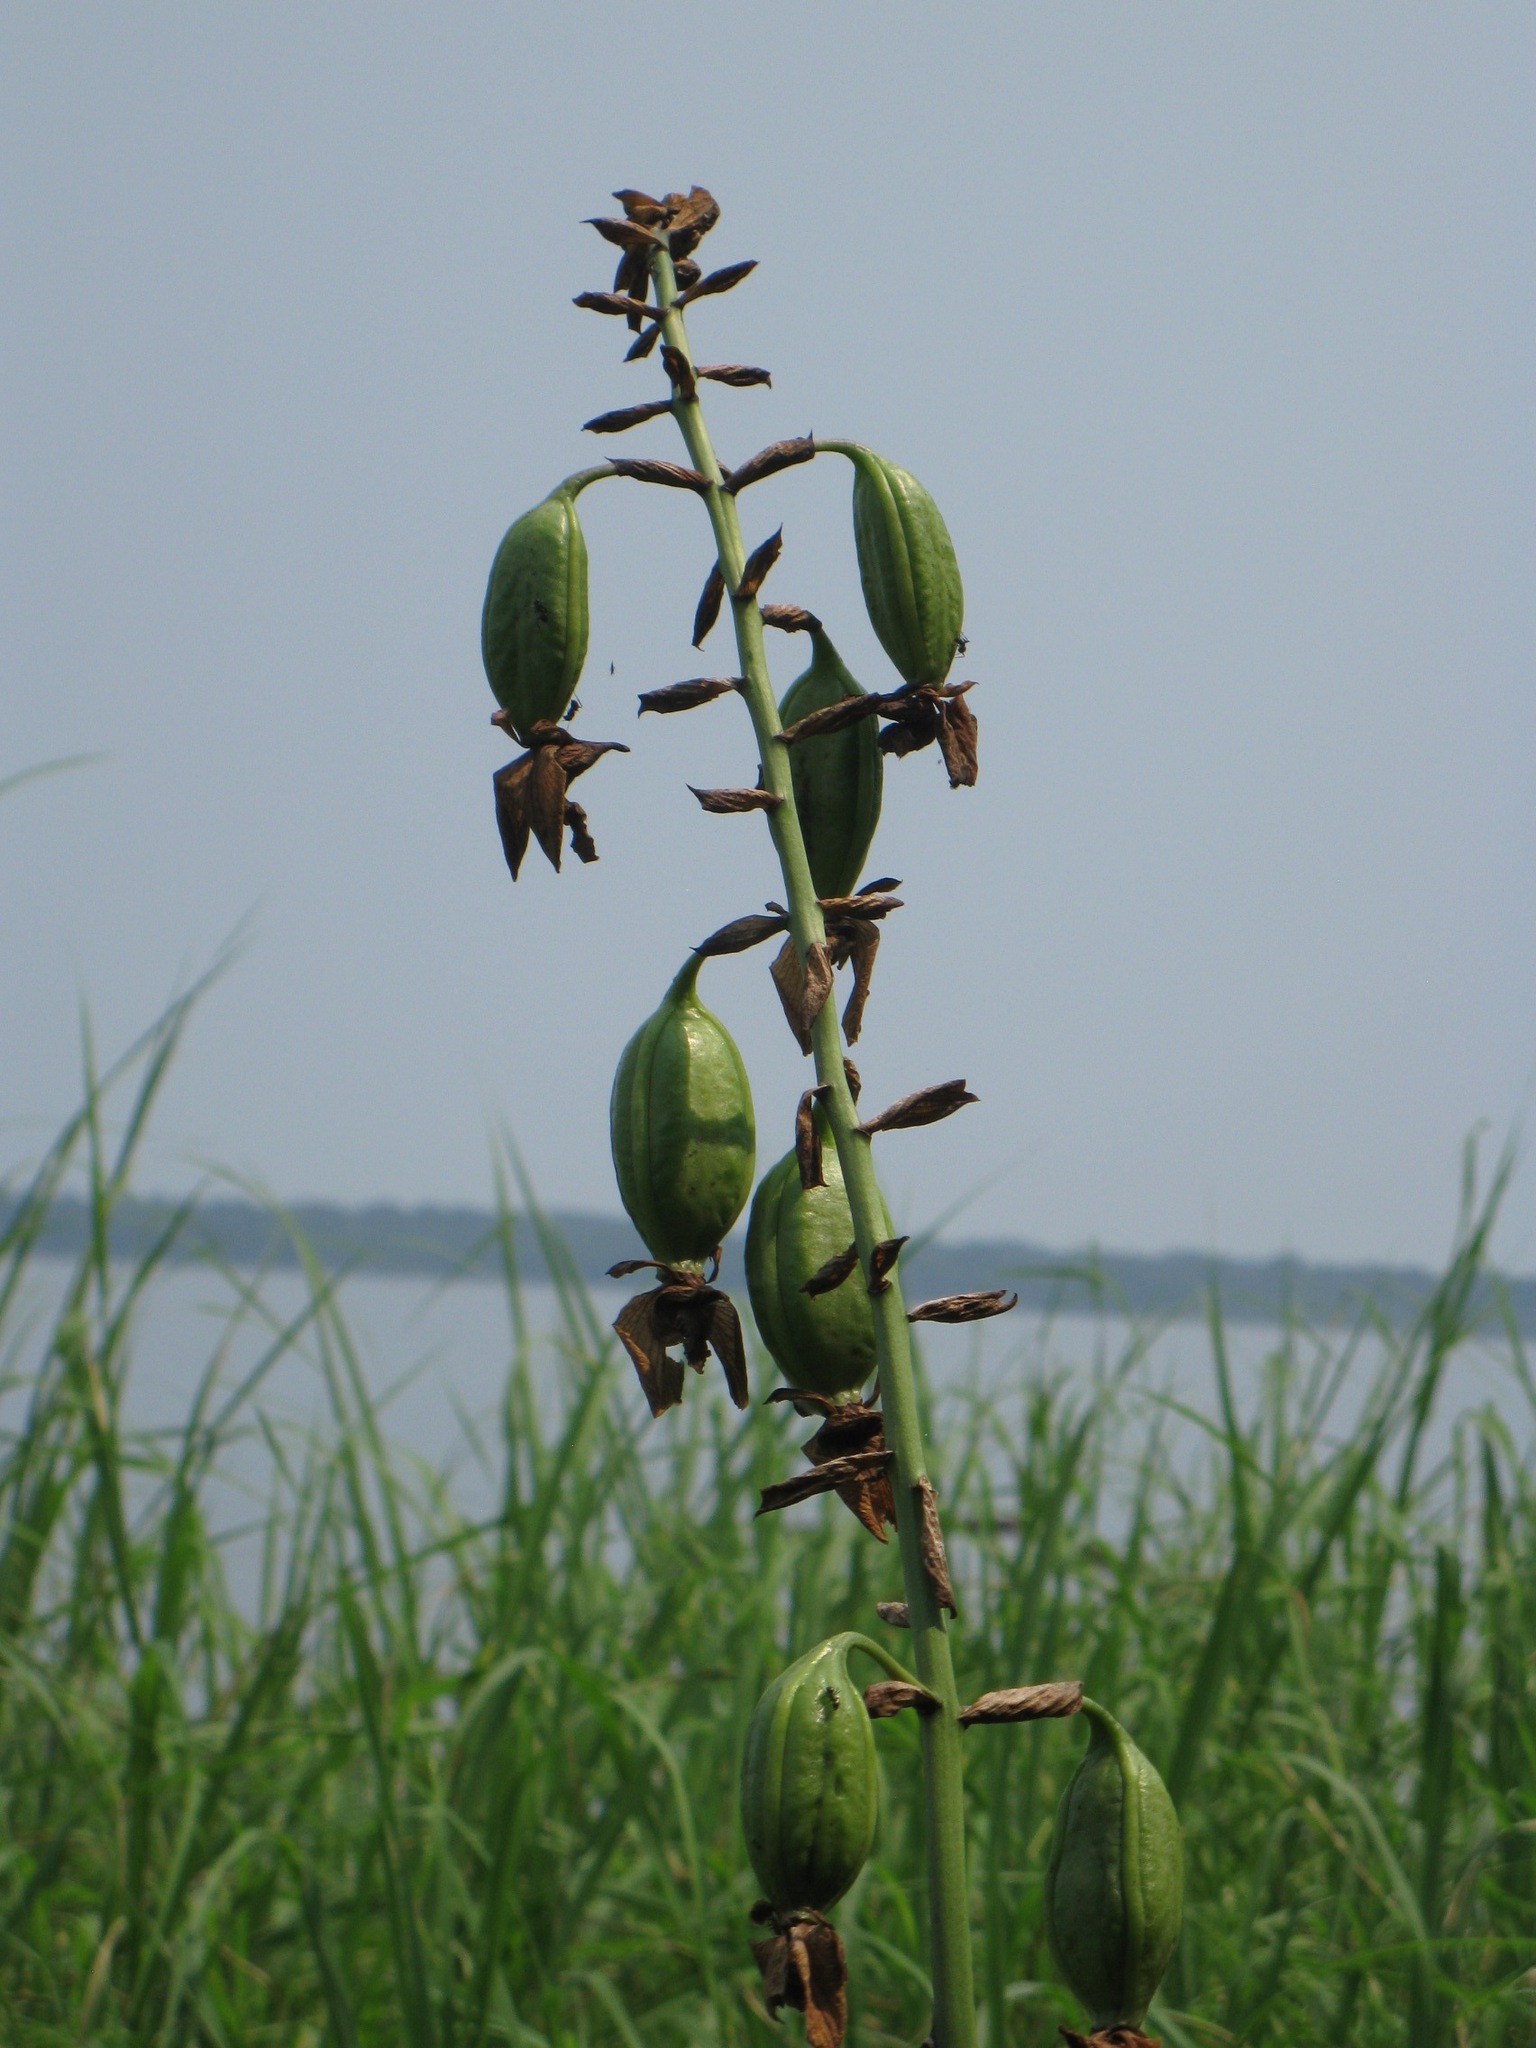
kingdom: Plantae
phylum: Tracheophyta
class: Liliopsida
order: Asparagales
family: Orchidaceae
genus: Eulophia
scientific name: Eulophia horsfallii
